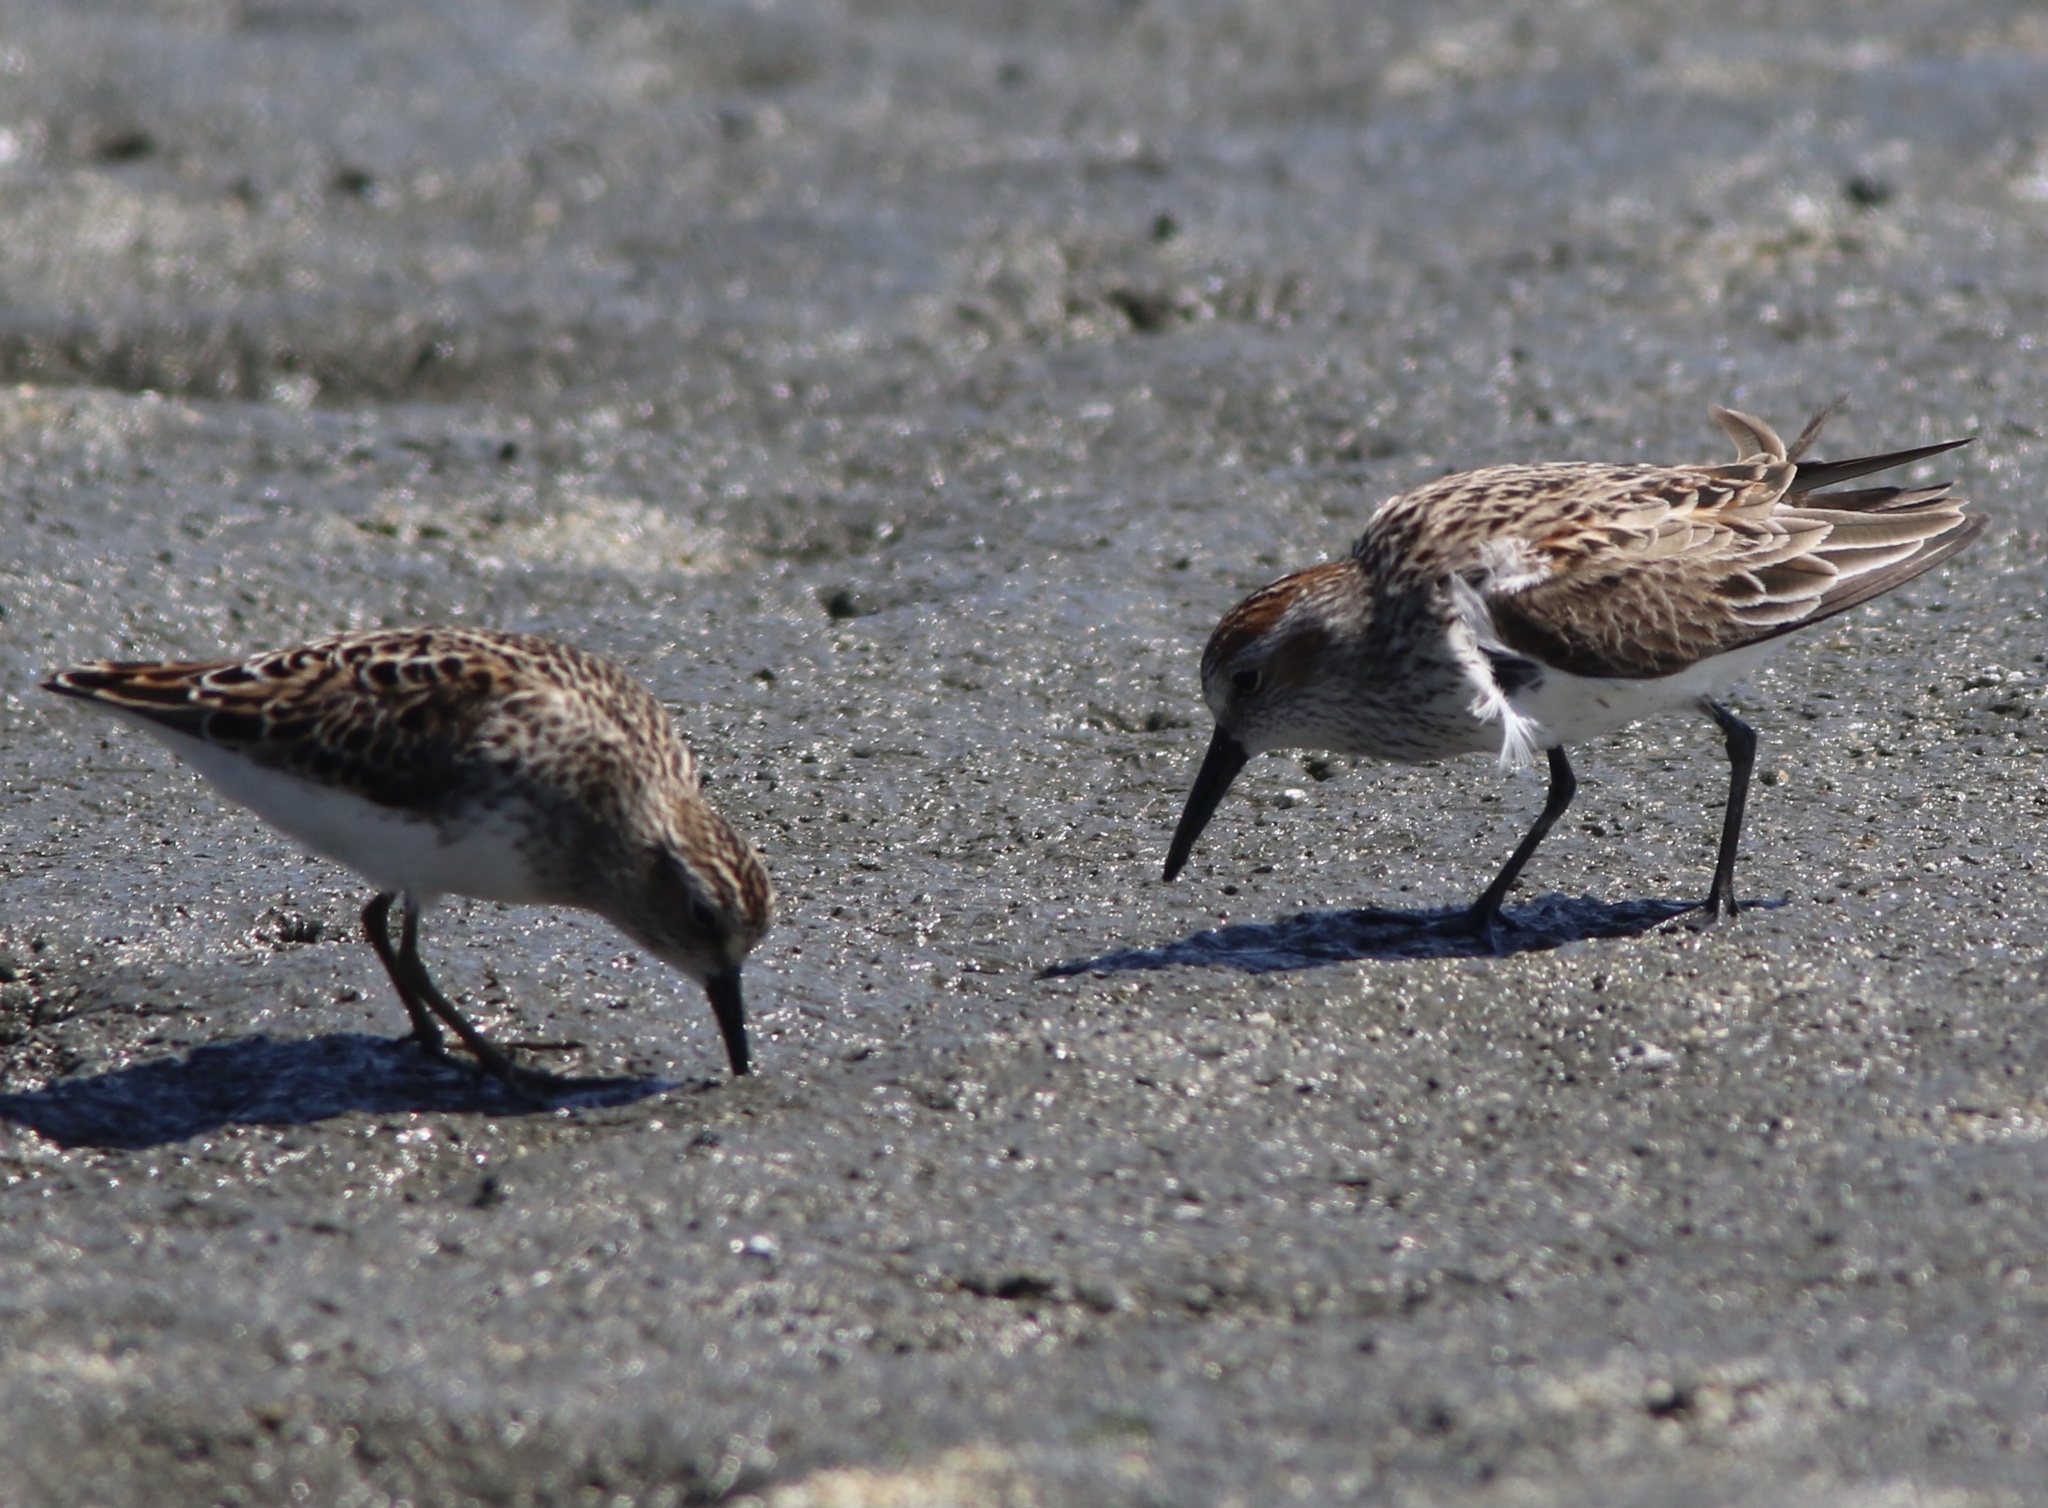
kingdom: Animalia
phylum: Chordata
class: Aves
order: Charadriiformes
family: Scolopacidae
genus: Calidris
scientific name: Calidris mauri
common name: Western sandpiper
